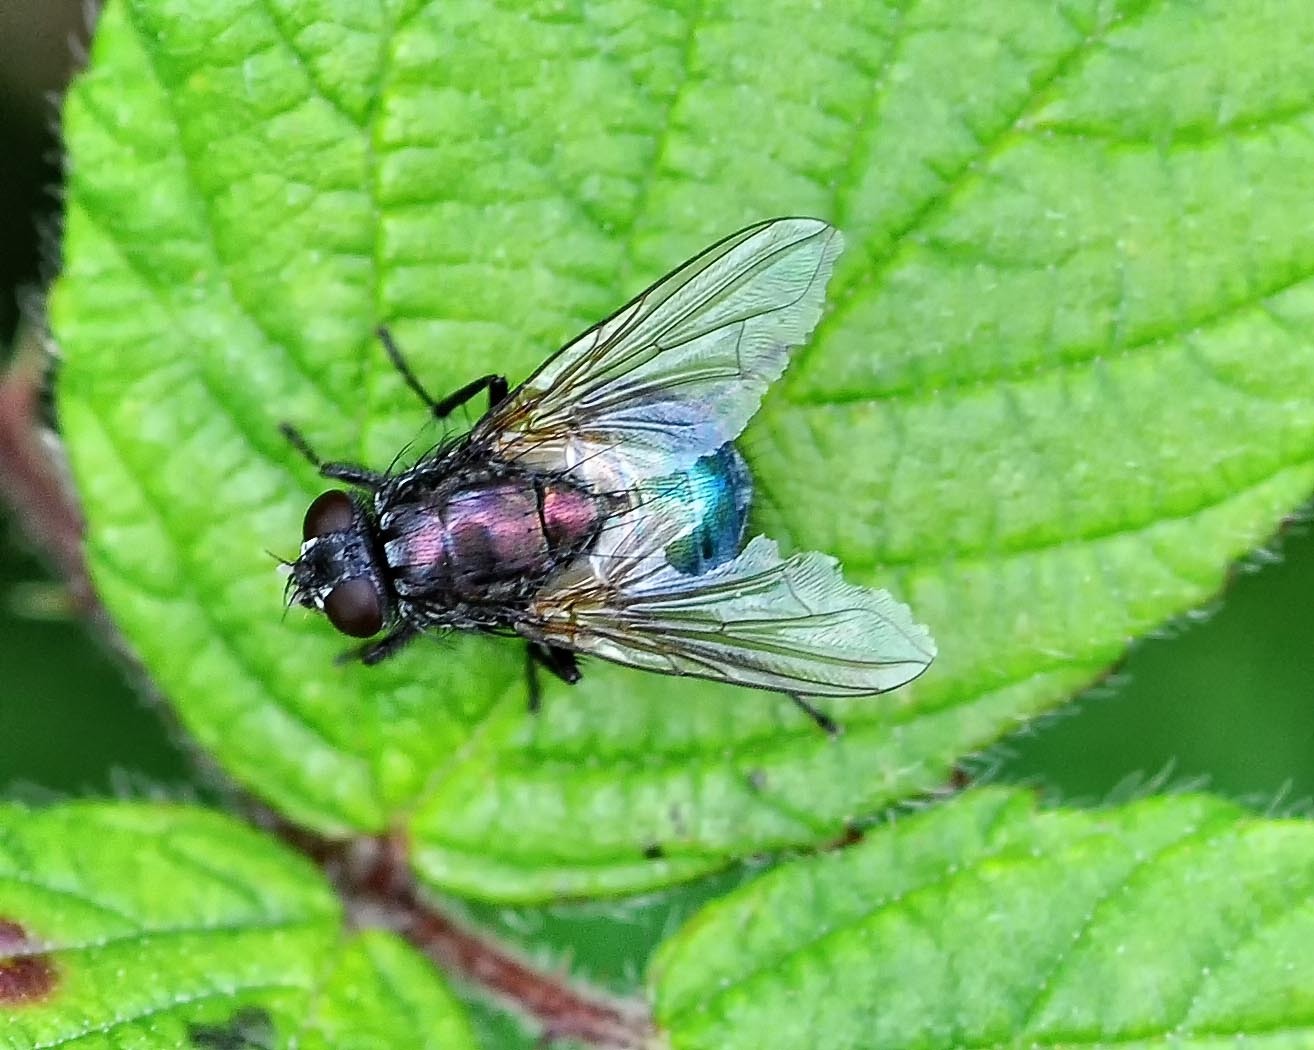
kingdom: Animalia
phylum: Arthropoda
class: Insecta
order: Diptera
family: Muscidae
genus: Dasyphora
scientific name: Dasyphora cyanella
